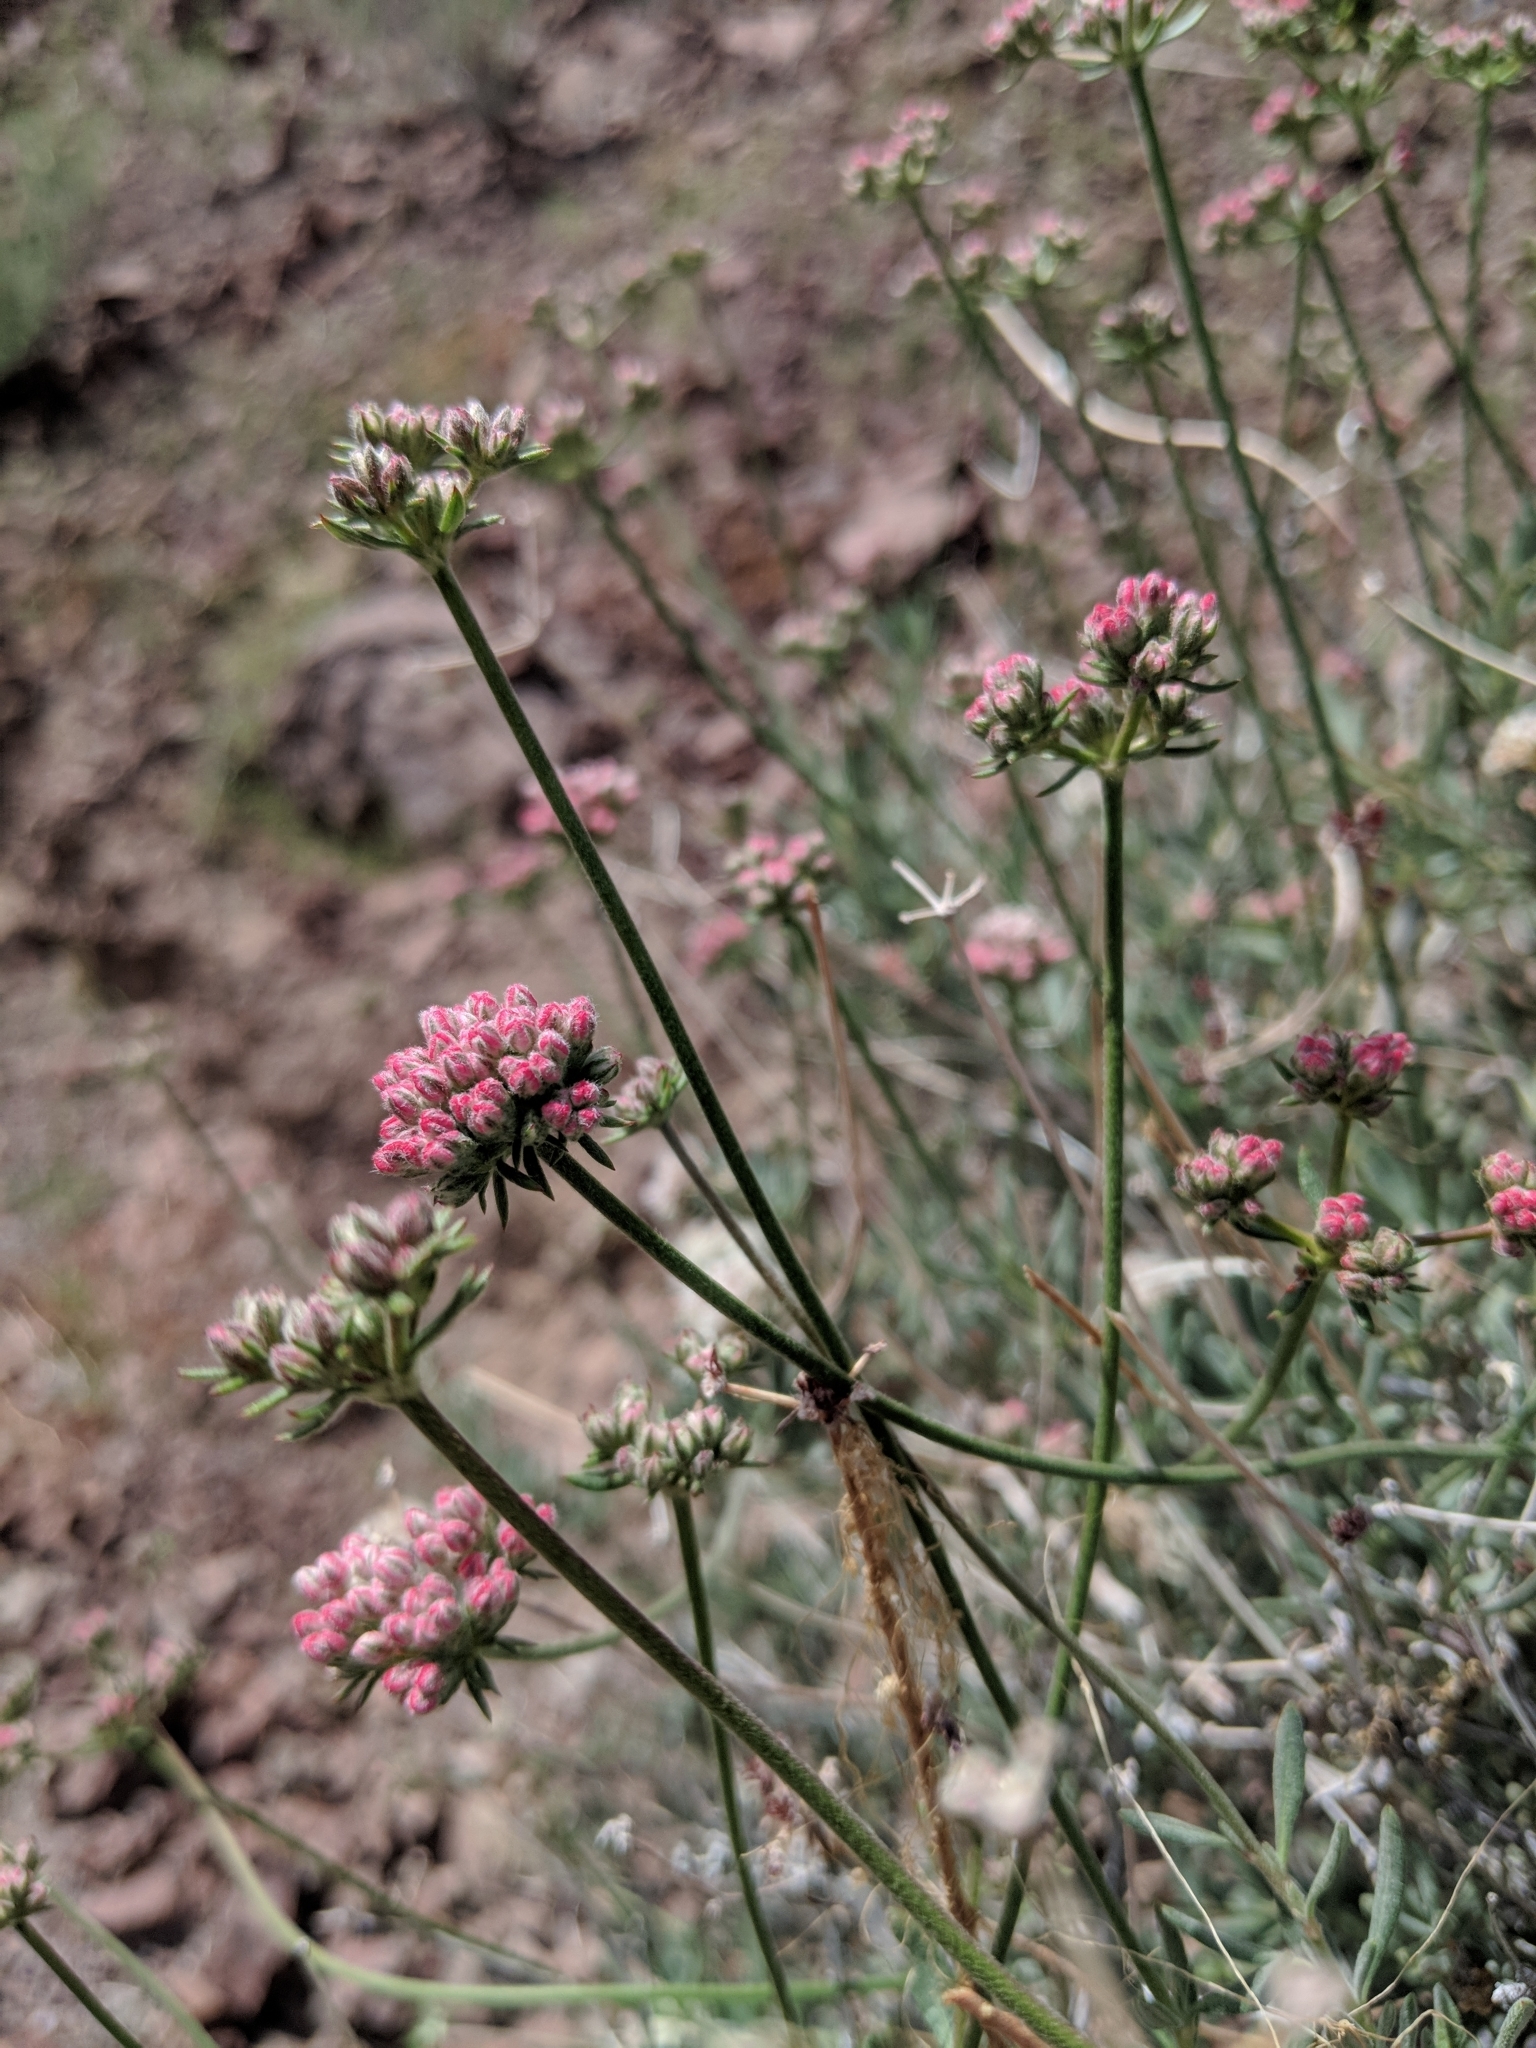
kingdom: Plantae
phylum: Tracheophyta
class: Magnoliopsida
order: Caryophyllales
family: Polygonaceae
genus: Eriogonum
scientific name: Eriogonum fasciculatum
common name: California wild buckwheat
